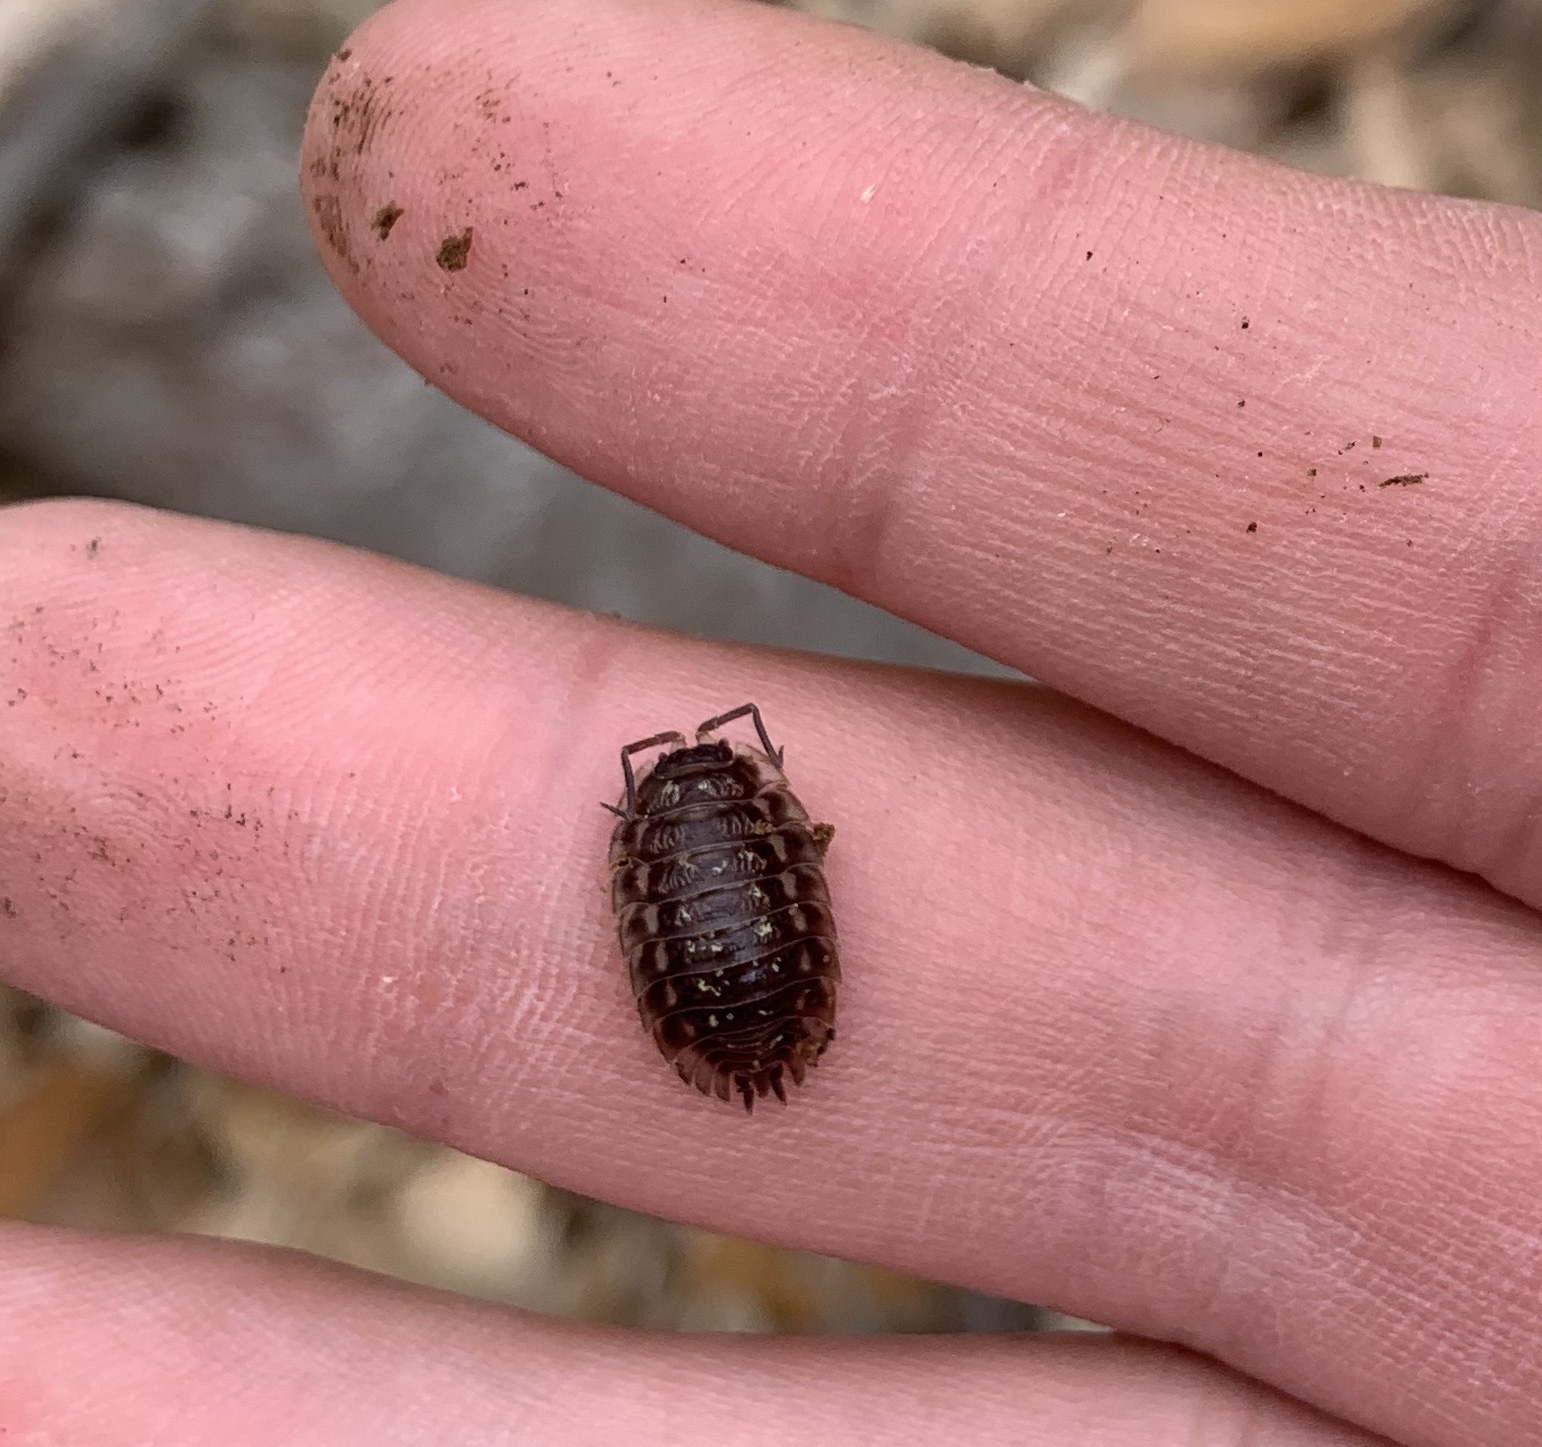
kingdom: Animalia
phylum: Arthropoda
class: Malacostraca
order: Isopoda
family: Oniscidae
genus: Oniscus
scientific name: Oniscus asellus
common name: Common shiny woodlouse
